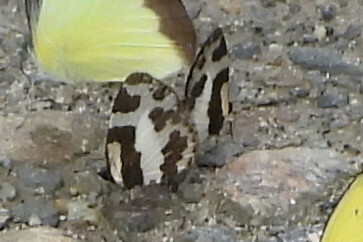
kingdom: Animalia
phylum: Arthropoda
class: Insecta
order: Lepidoptera
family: Lycaenidae
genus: Caleta
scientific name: Caleta elna
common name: Elbowed pierrot
